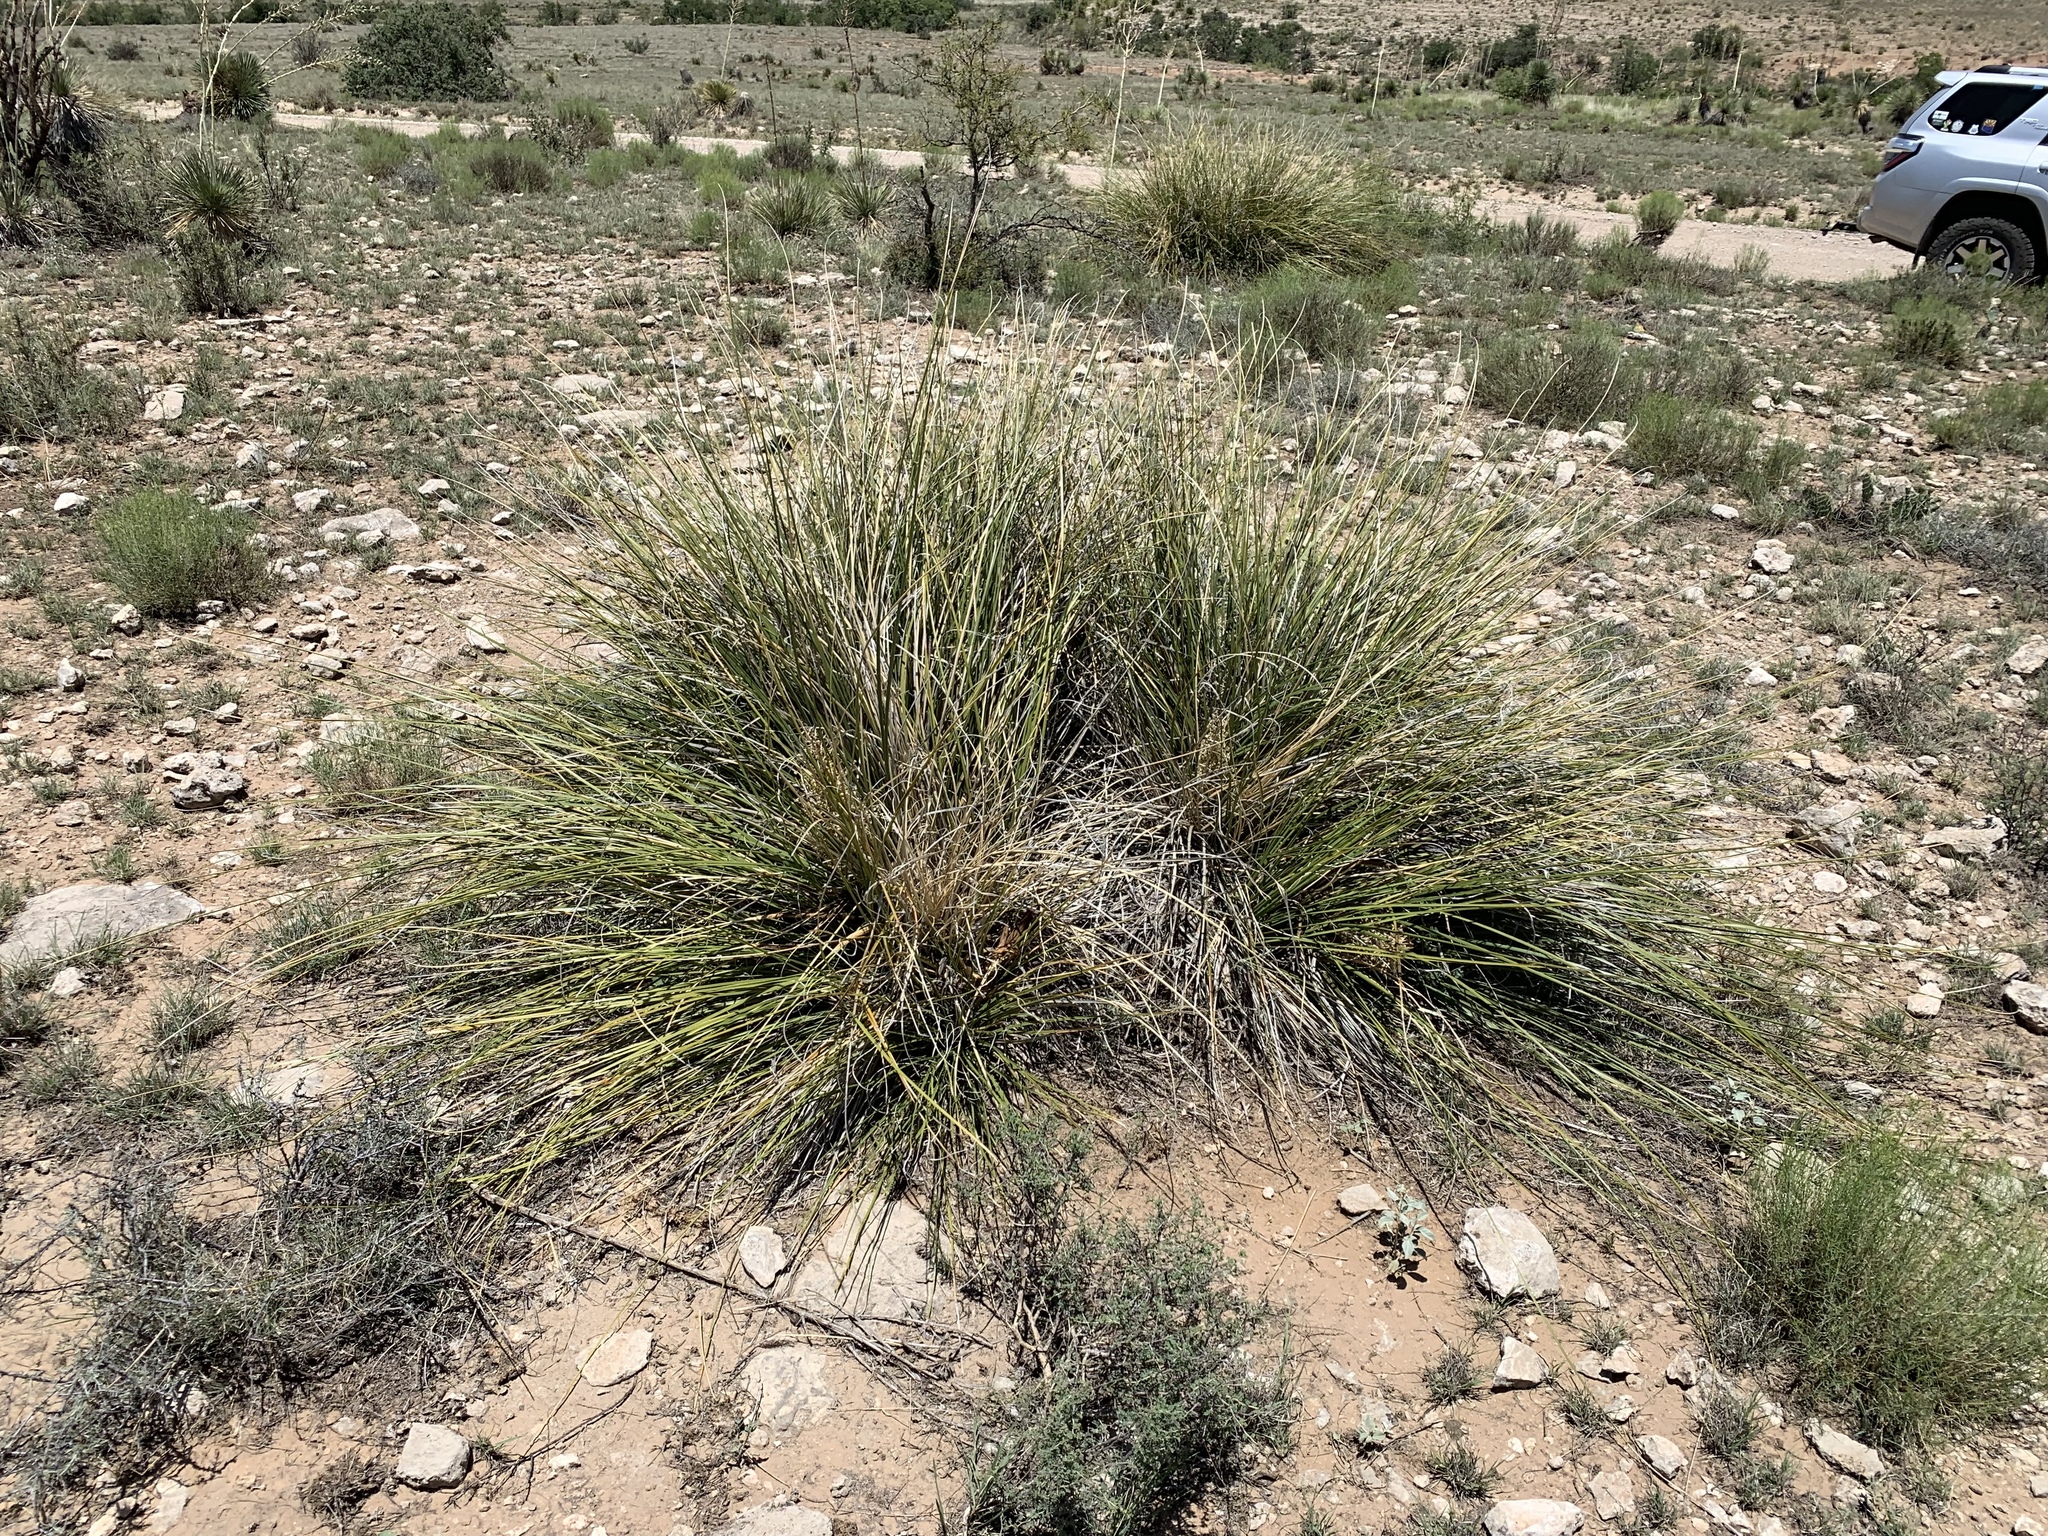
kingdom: Plantae
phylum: Tracheophyta
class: Liliopsida
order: Asparagales
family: Asparagaceae
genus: Nolina
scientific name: Nolina texana
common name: Texas sacahuiste
